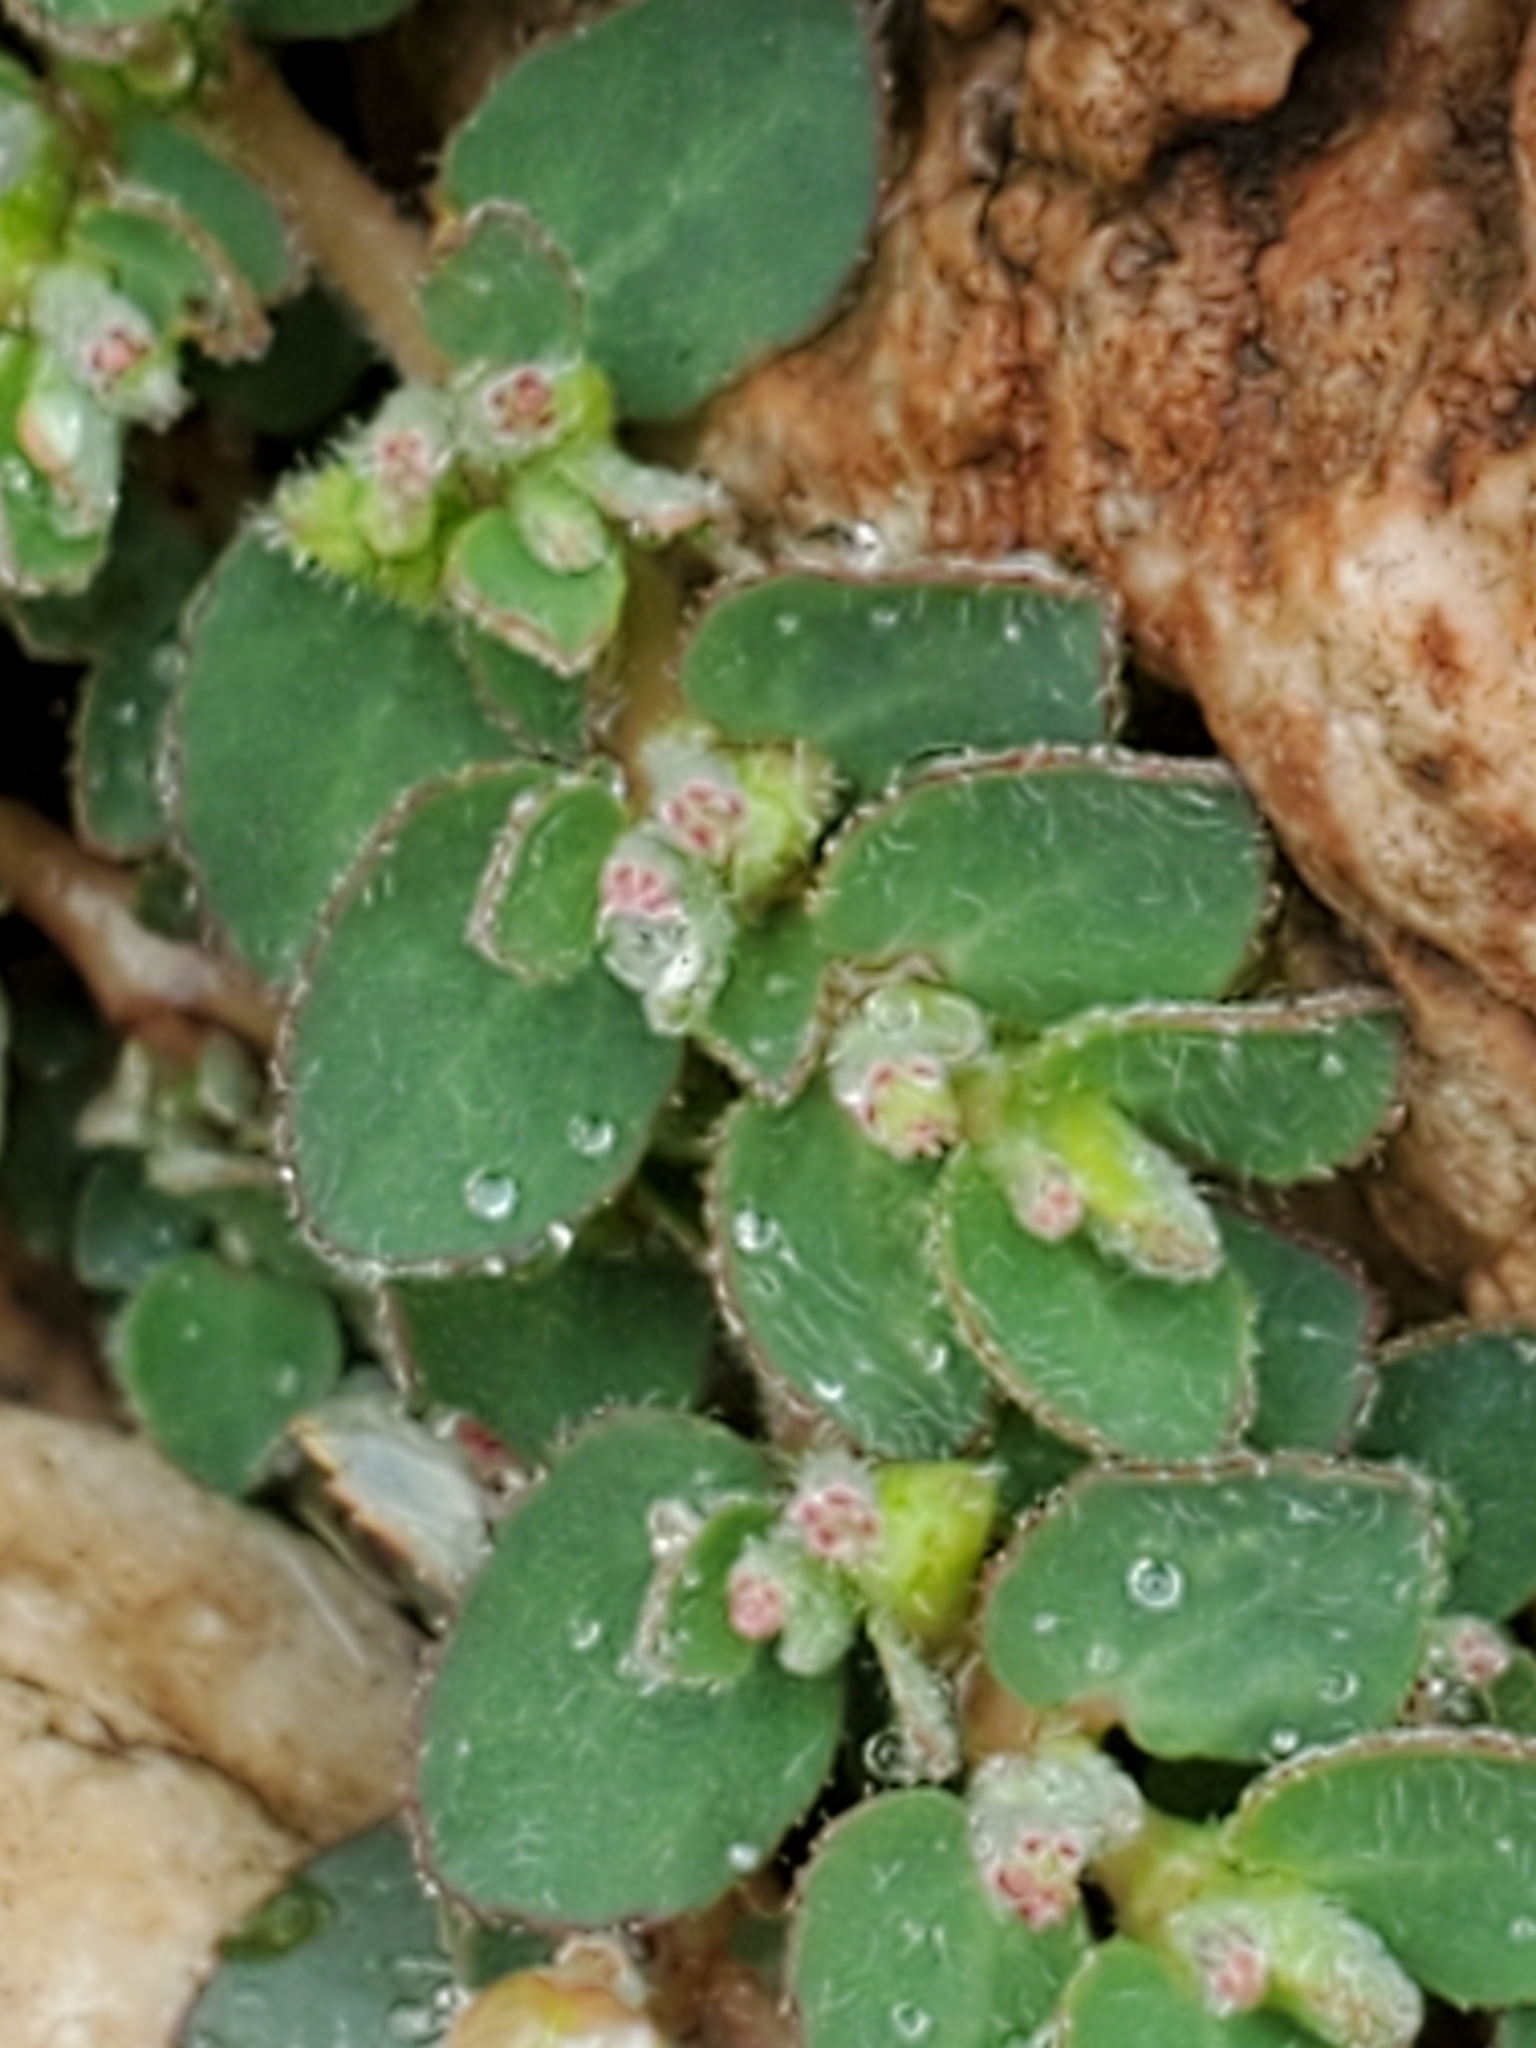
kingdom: Plantae
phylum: Tracheophyta
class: Magnoliopsida
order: Malpighiales
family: Euphorbiaceae
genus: Euphorbia
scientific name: Euphorbia prostrata
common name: Prostrate sandmat
